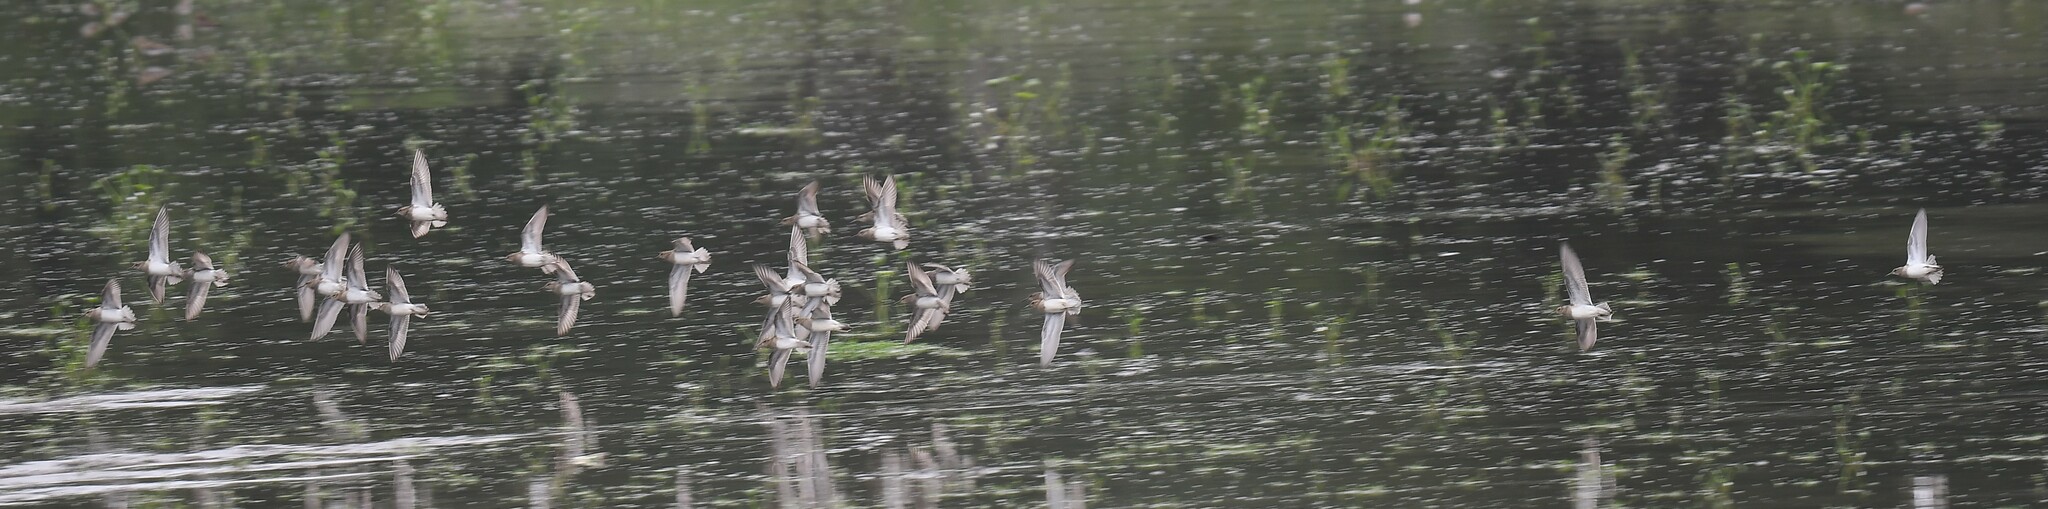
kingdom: Animalia
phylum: Chordata
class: Aves
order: Charadriiformes
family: Scolopacidae
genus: Calidris
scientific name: Calidris melanotos
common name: Pectoral sandpiper
